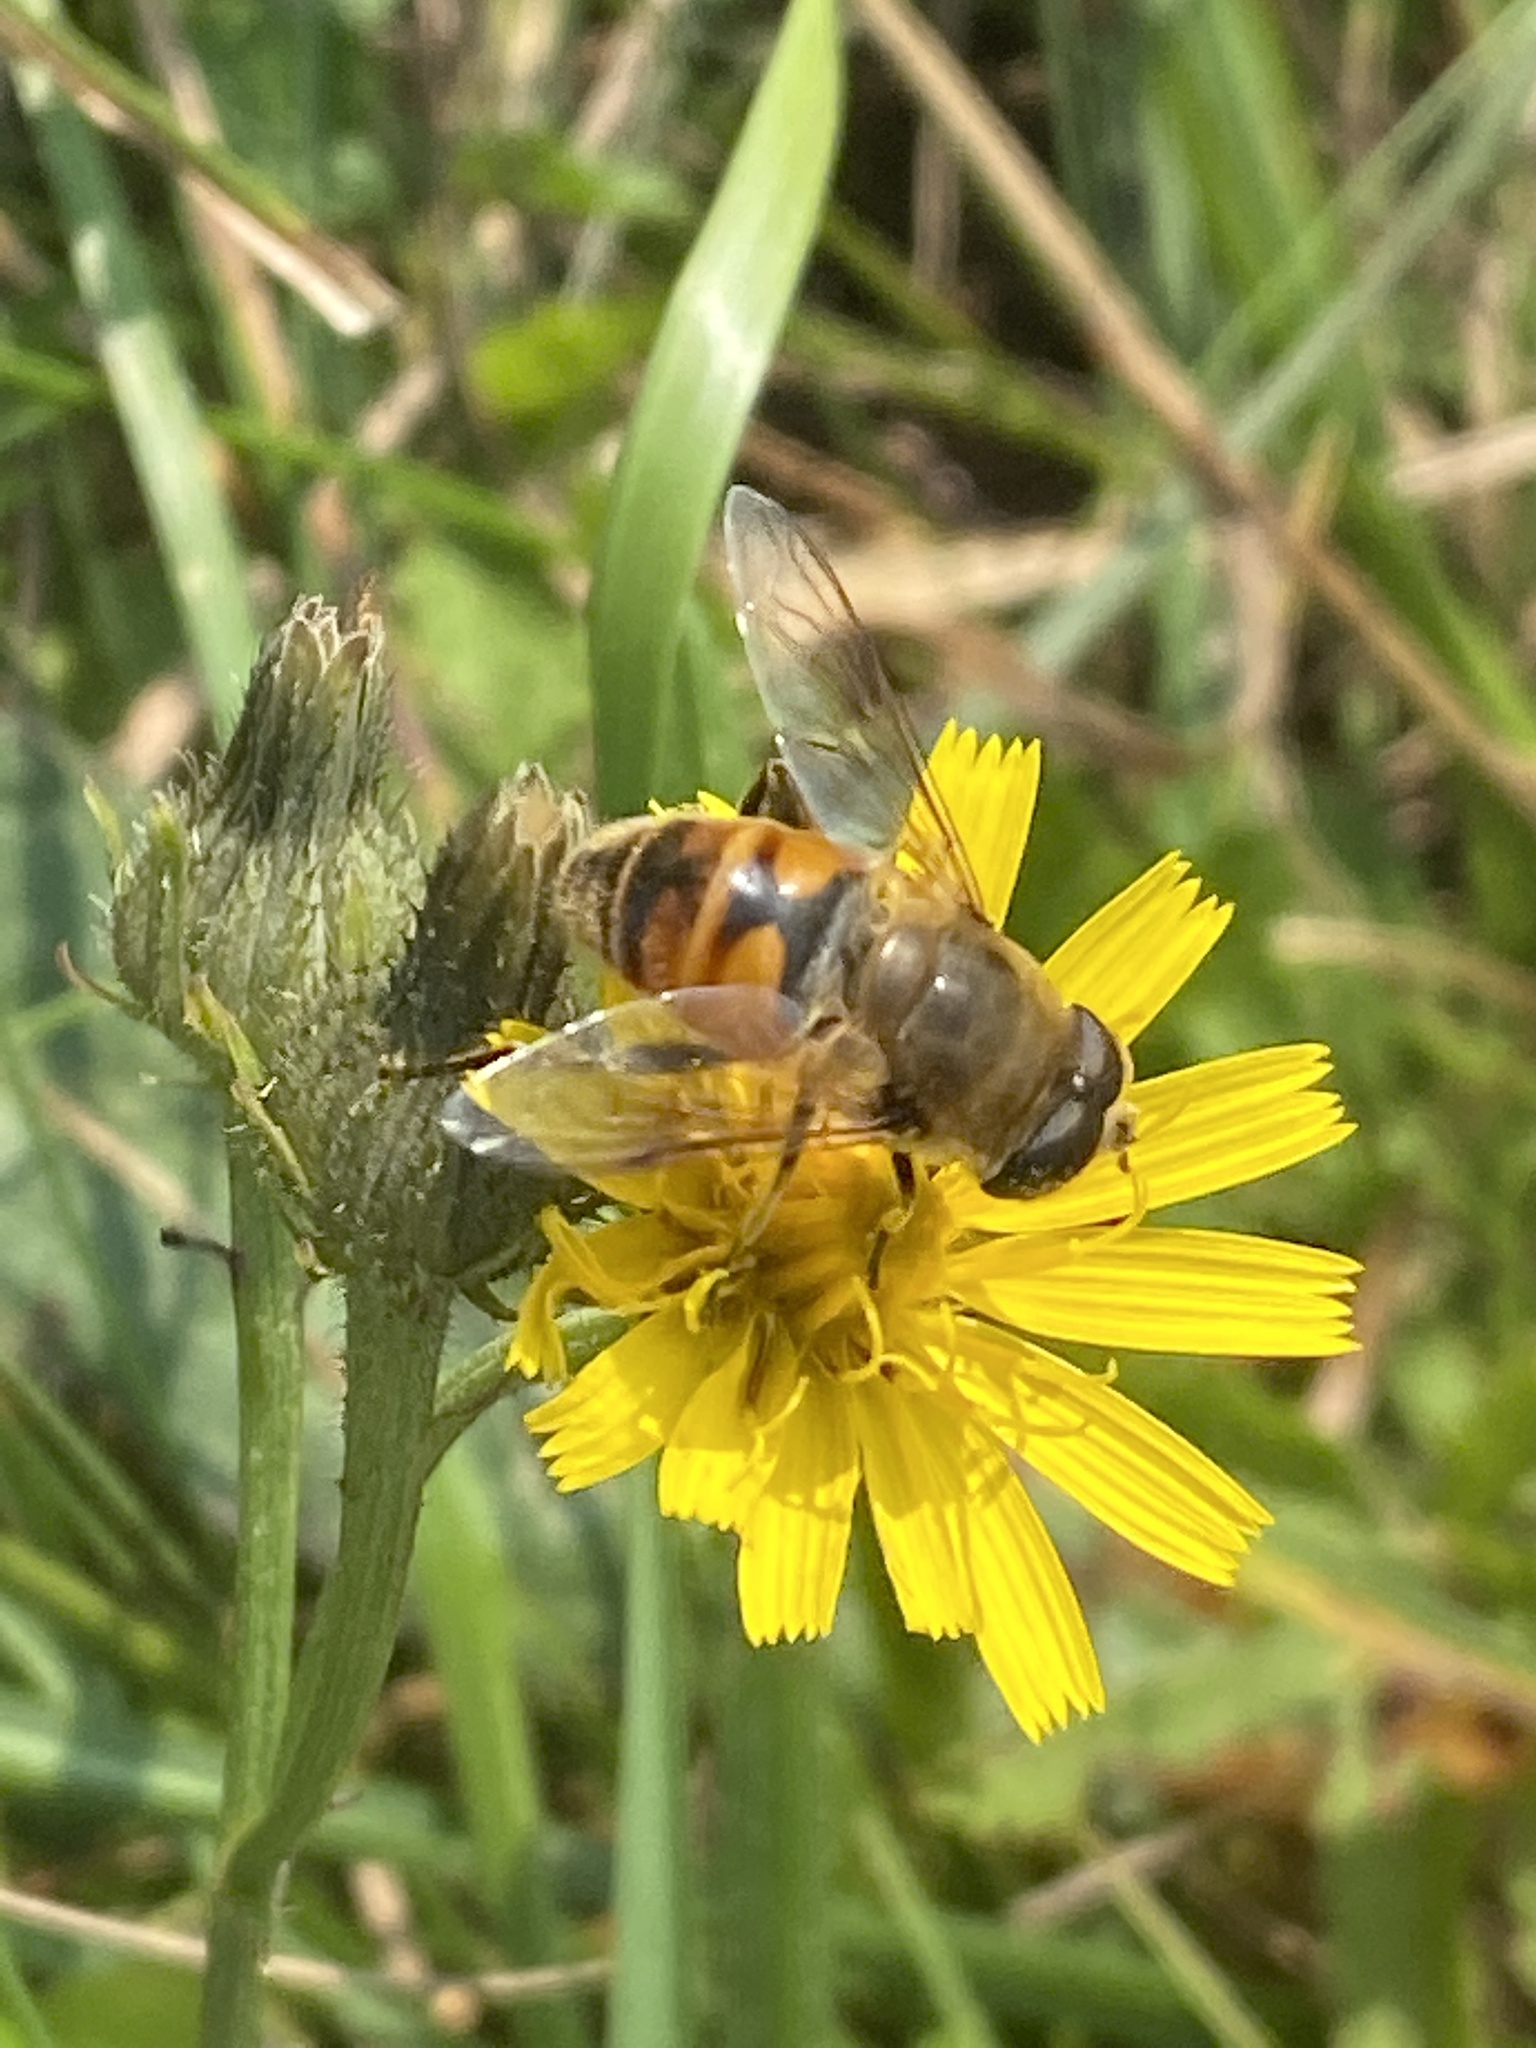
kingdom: Animalia
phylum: Arthropoda
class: Insecta
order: Diptera
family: Syrphidae
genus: Eristalis
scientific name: Eristalis tenax
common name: Drone fly
